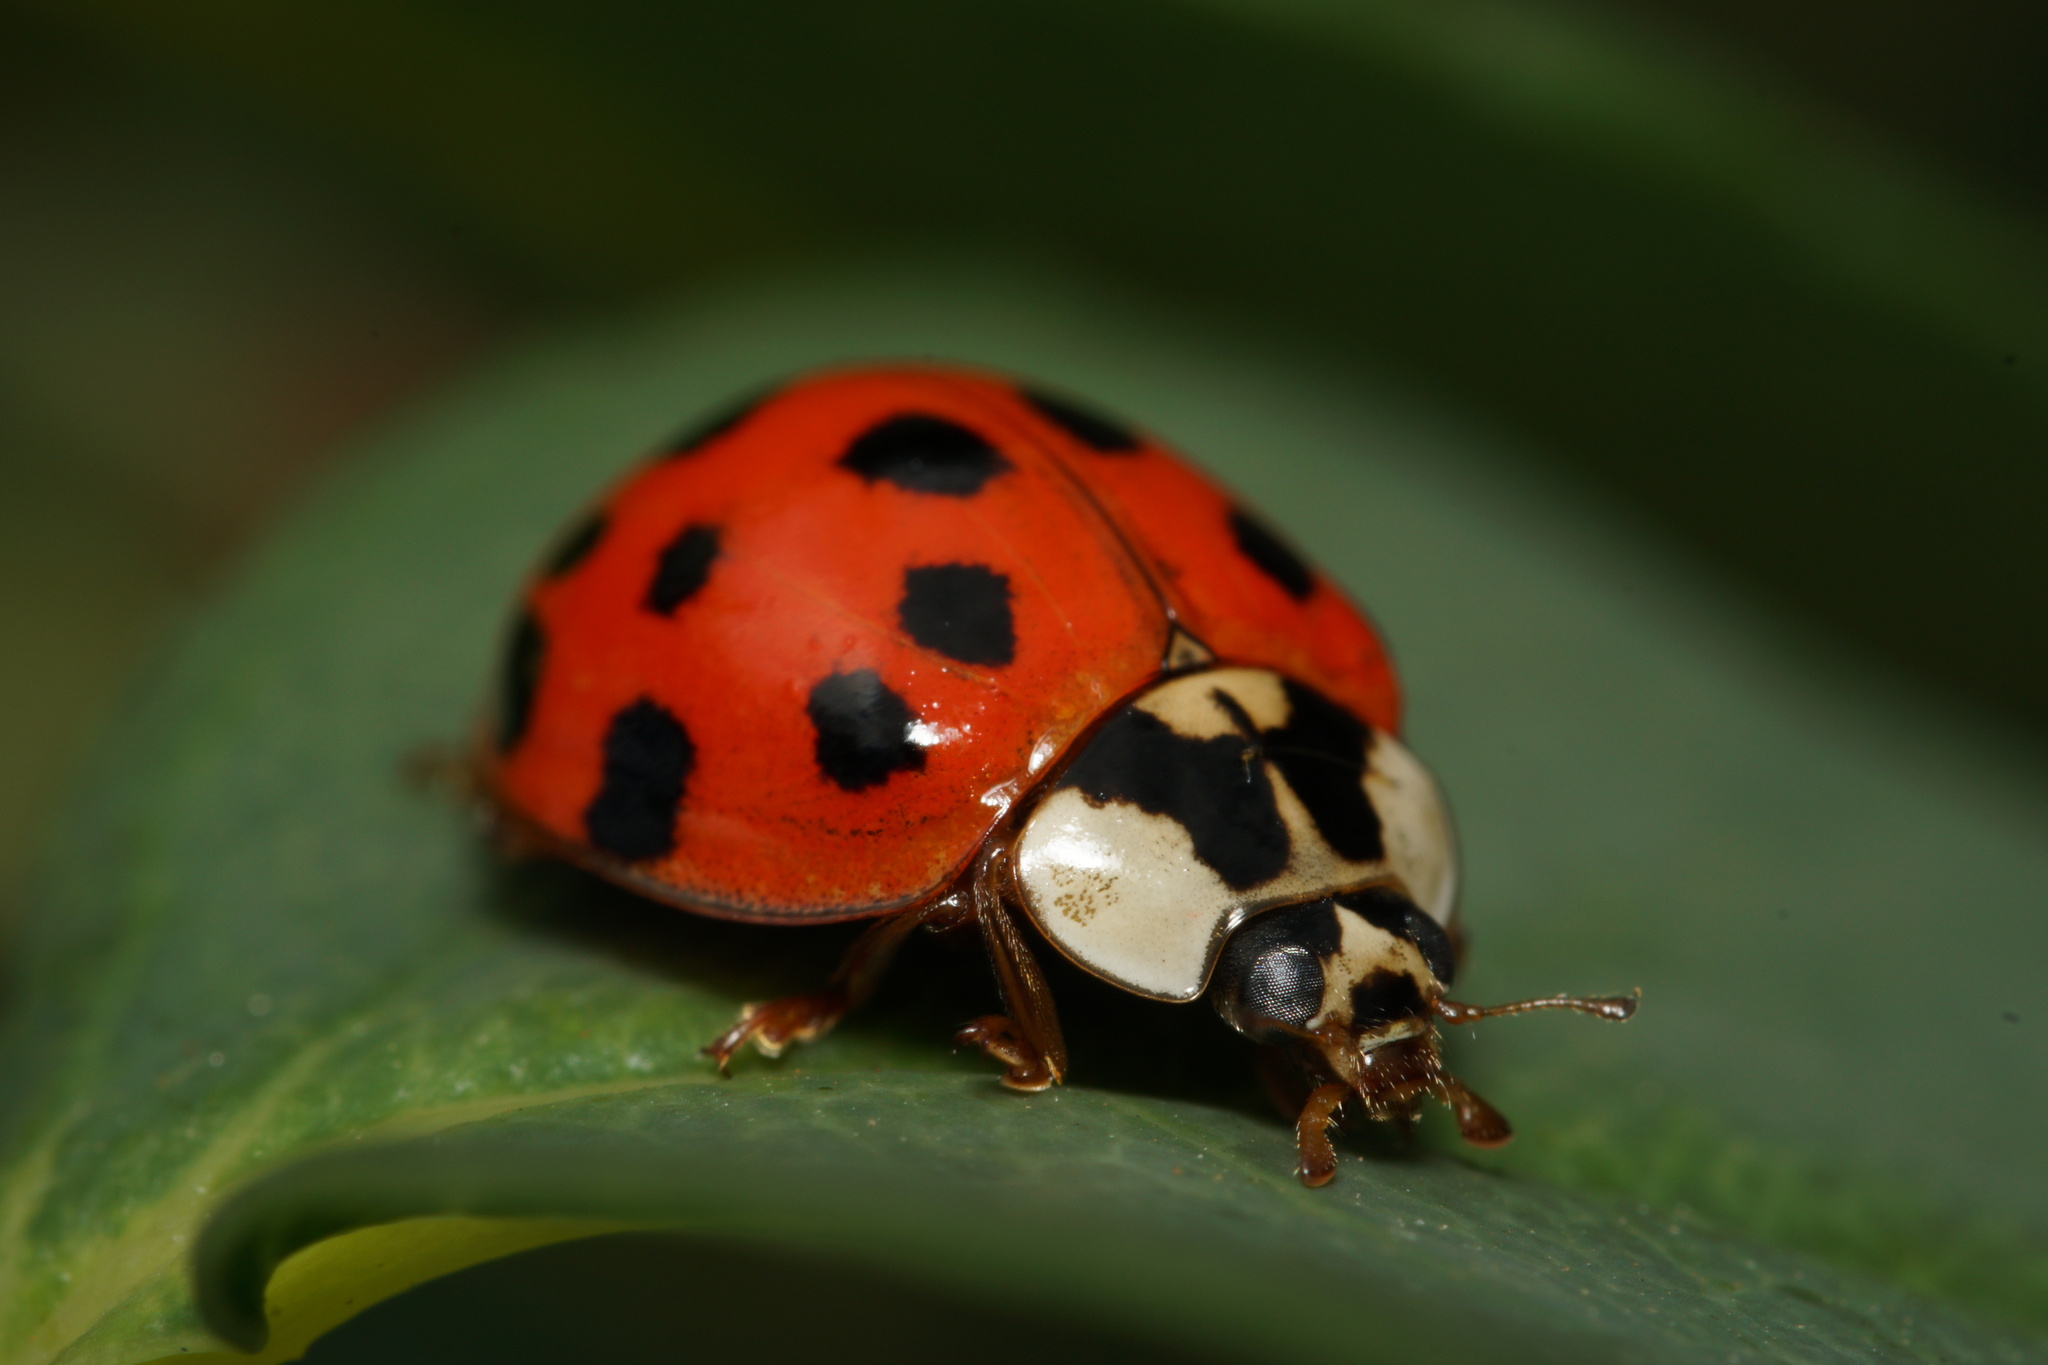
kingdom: Animalia
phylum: Arthropoda
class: Insecta
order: Coleoptera
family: Coccinellidae
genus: Harmonia
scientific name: Harmonia axyridis
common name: Harlequin ladybird
